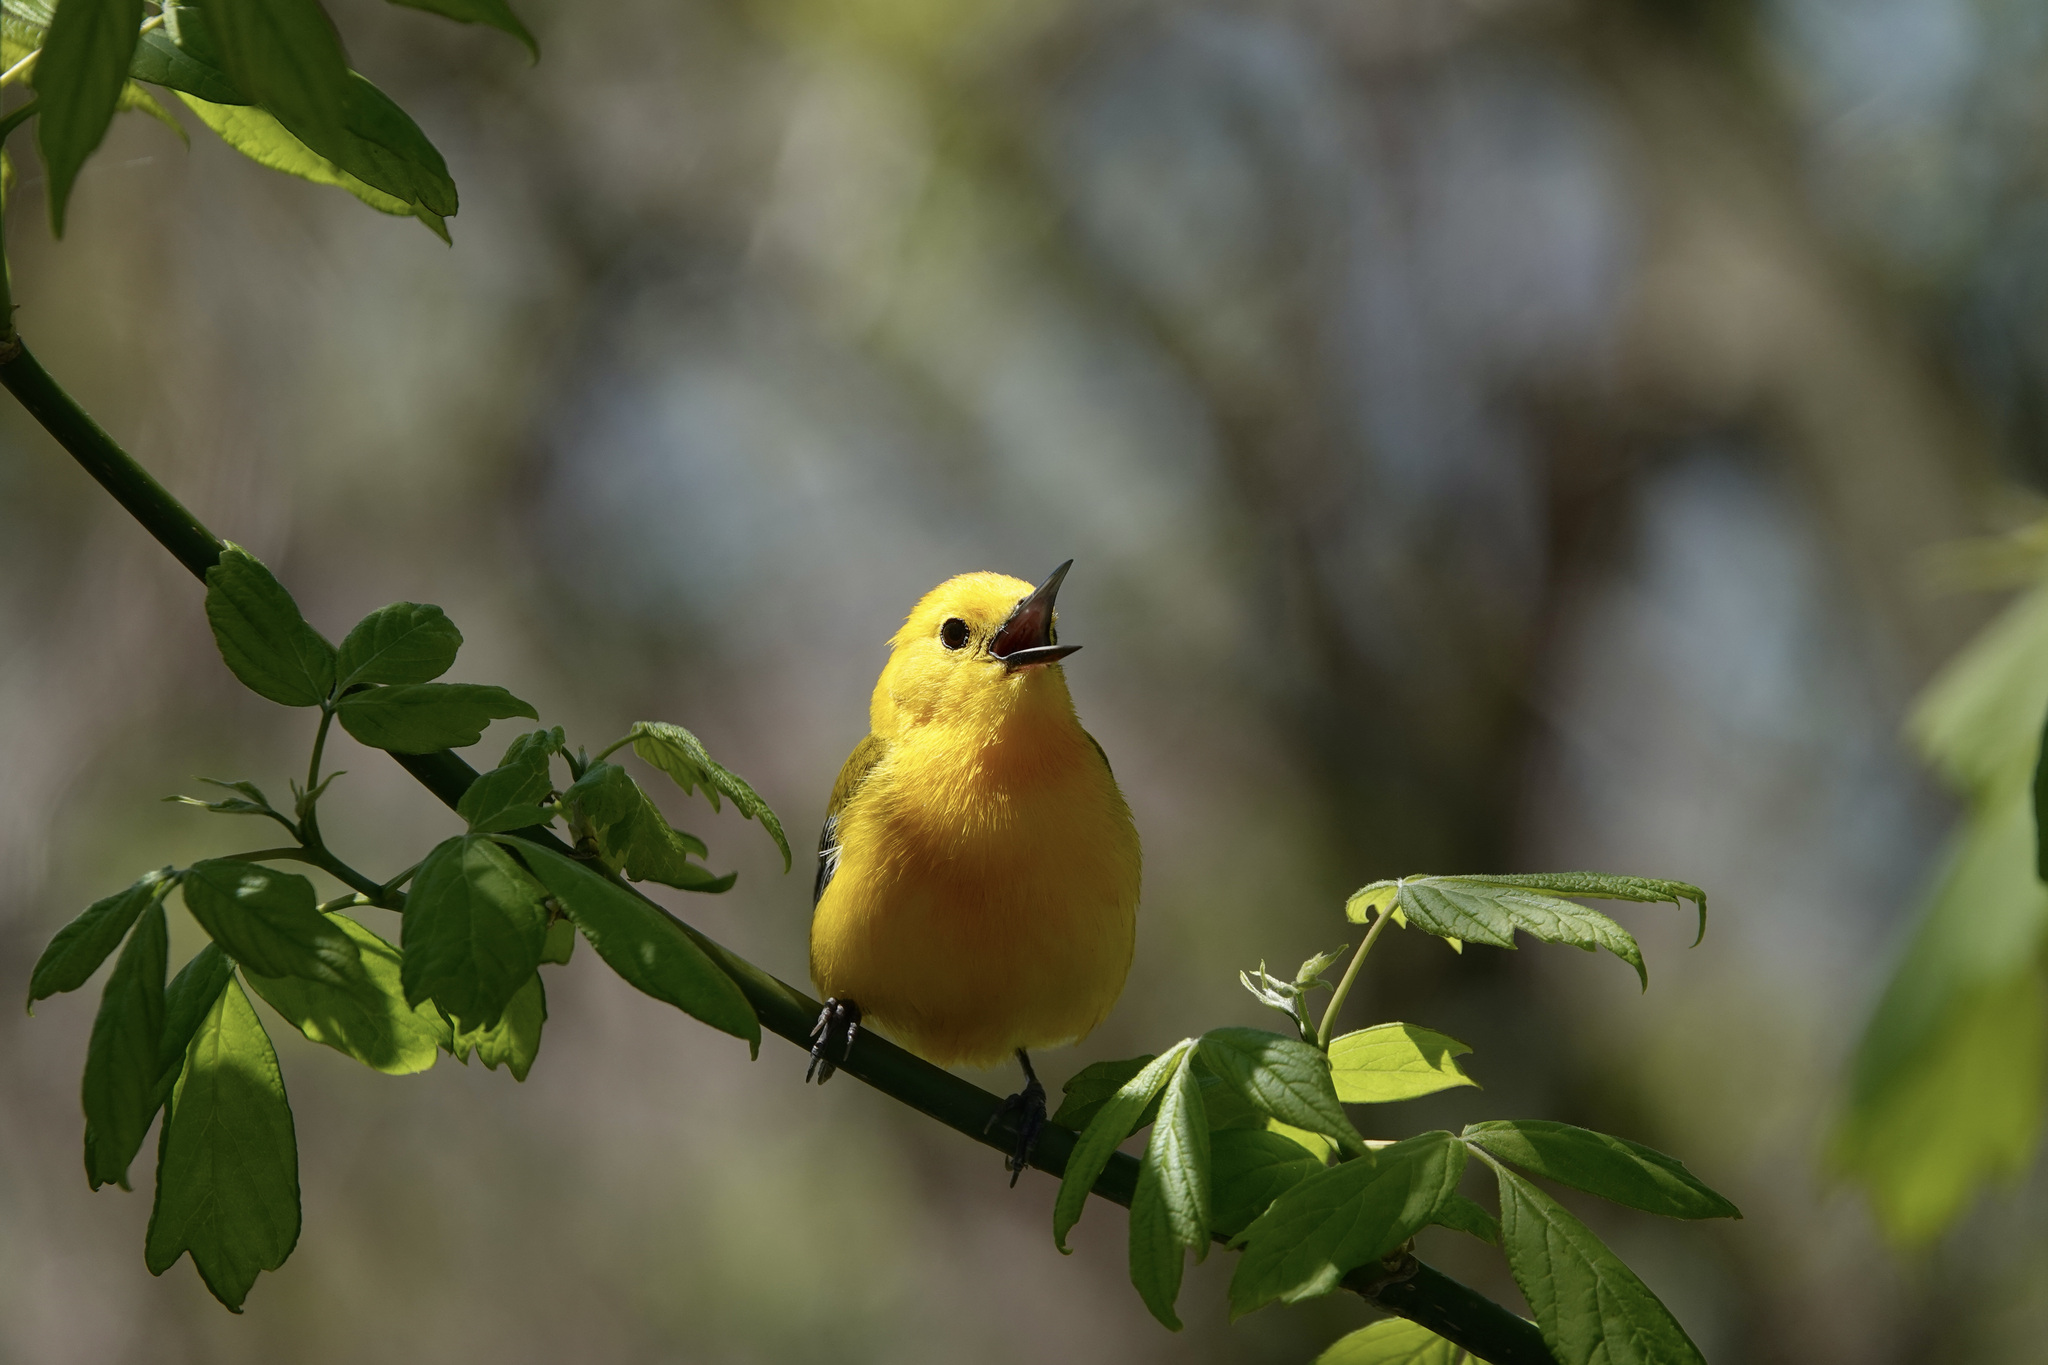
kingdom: Animalia
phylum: Chordata
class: Aves
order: Passeriformes
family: Parulidae
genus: Protonotaria
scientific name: Protonotaria citrea
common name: Prothonotary warbler
